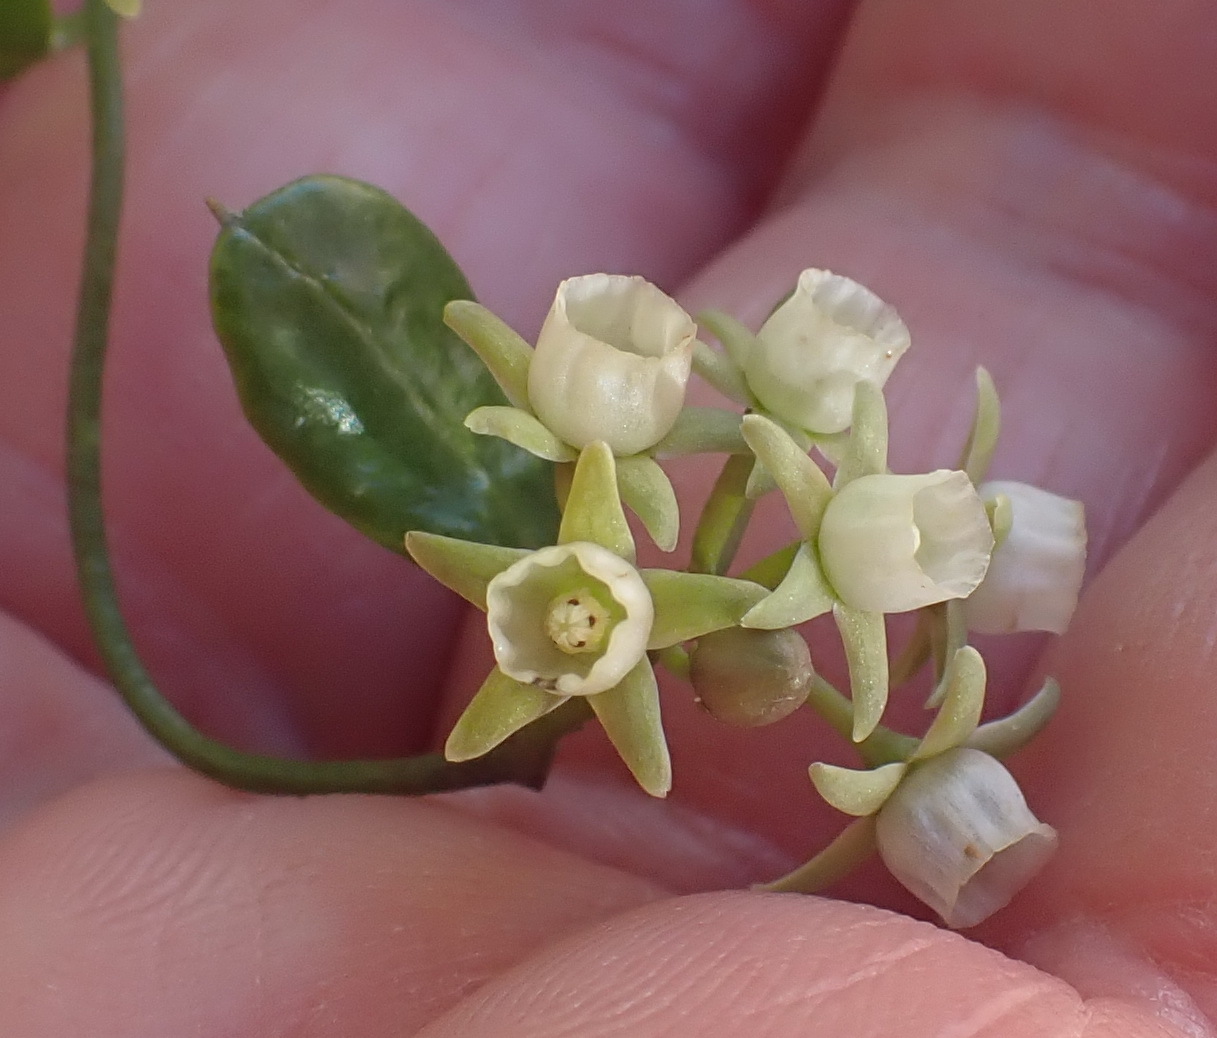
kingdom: Plantae
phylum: Tracheophyta
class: Magnoliopsida
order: Gentianales
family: Apocynaceae
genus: Cynanchum
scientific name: Cynanchum ellipticum
